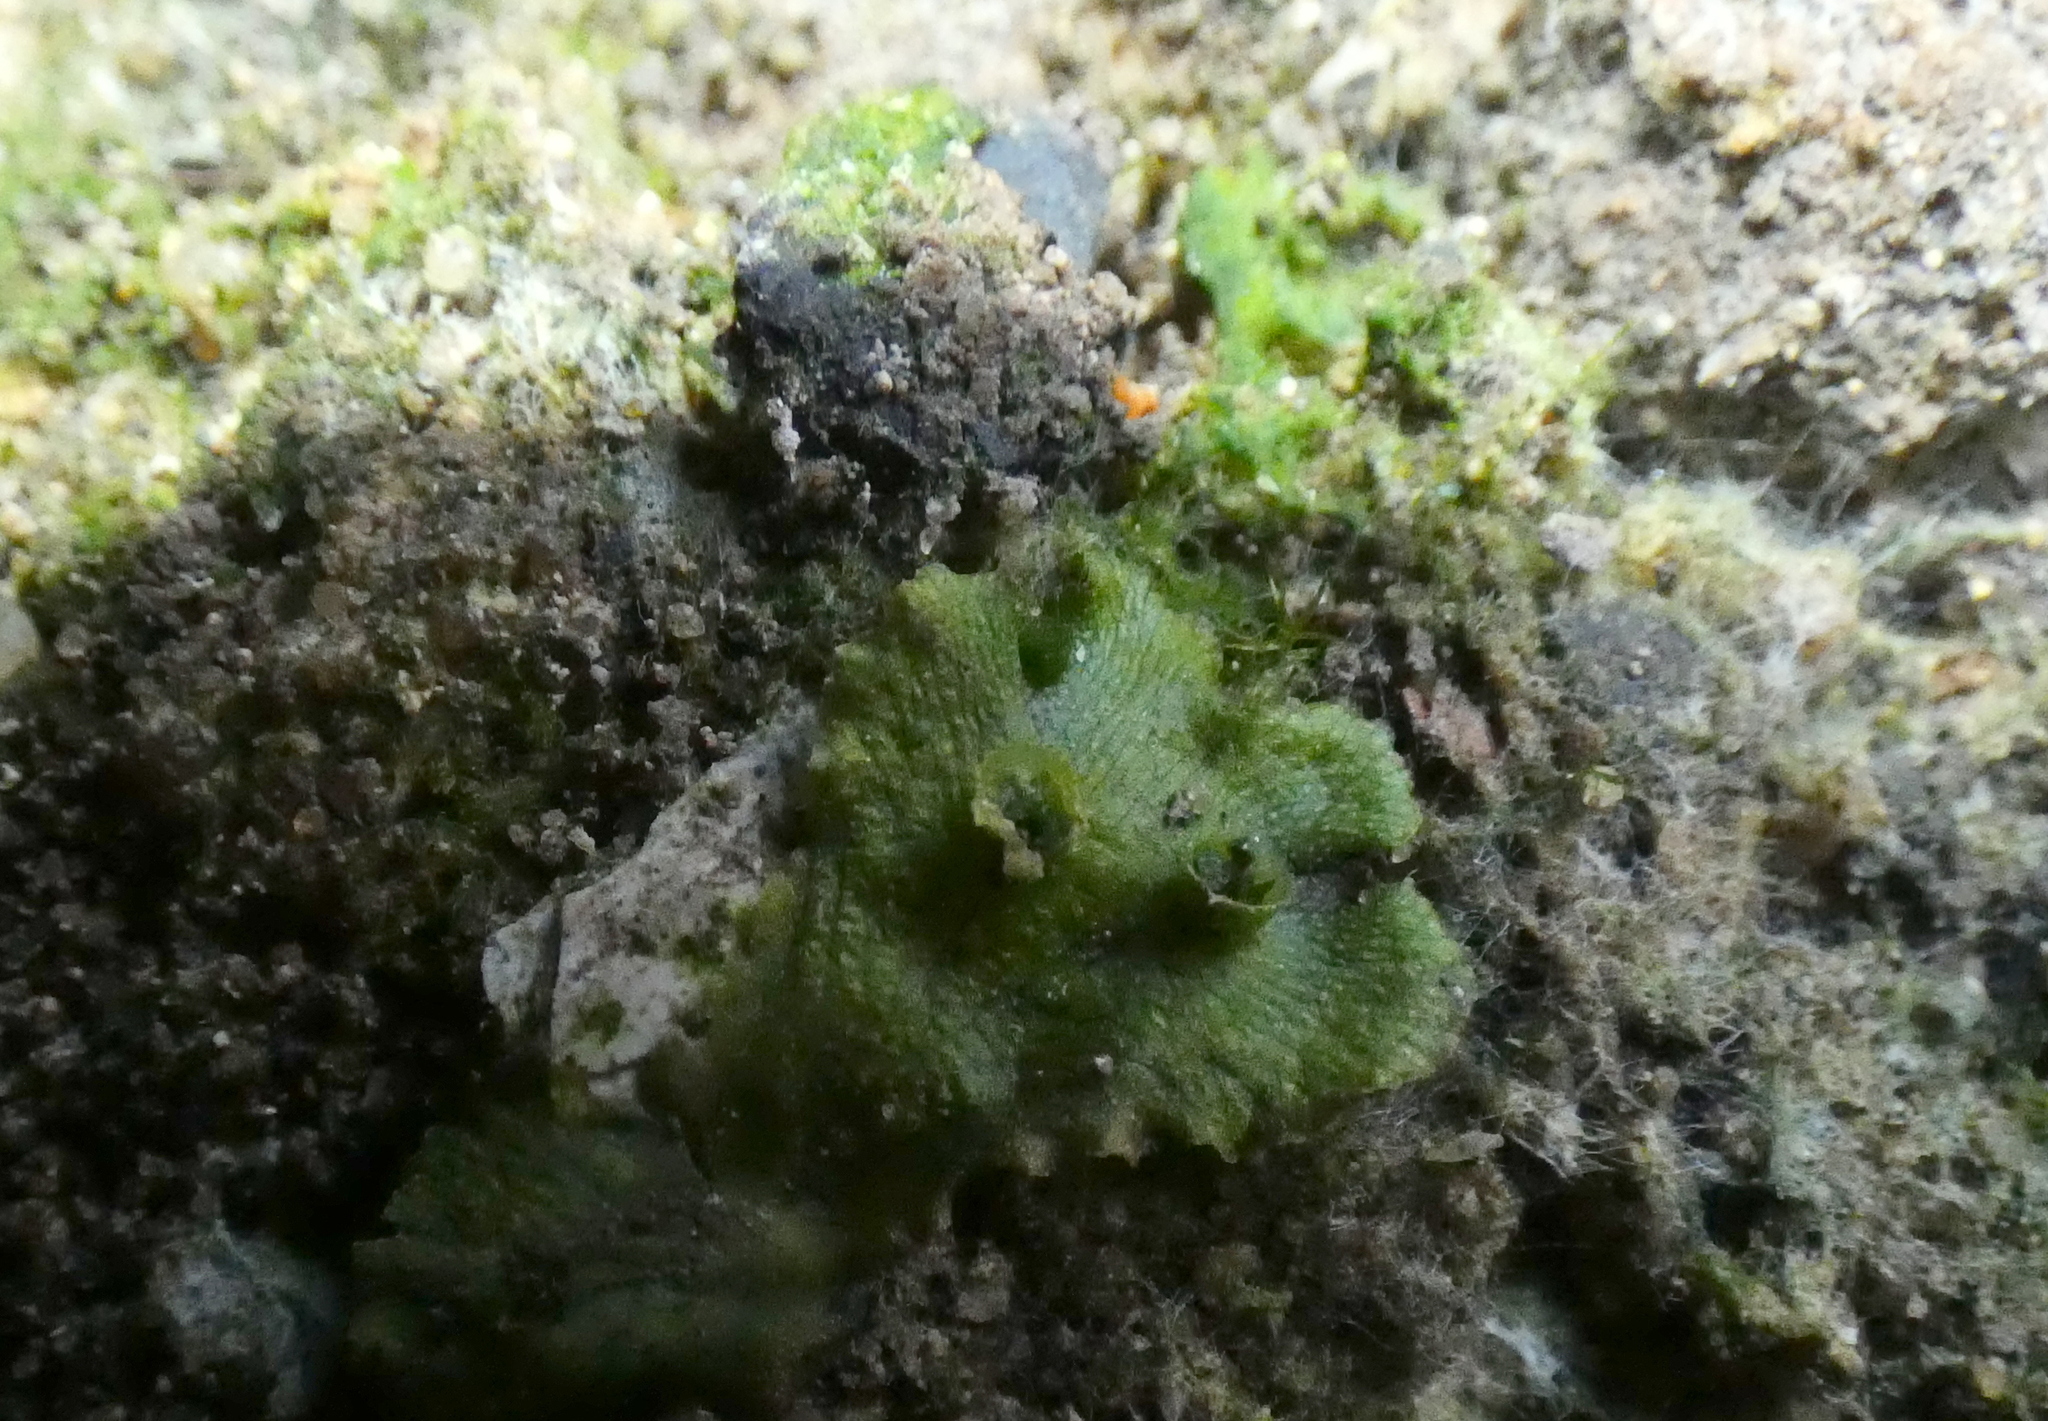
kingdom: Plantae
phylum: Marchantiophyta
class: Marchantiopsida
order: Marchantiales
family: Marchantiaceae
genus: Marchantia
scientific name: Marchantia polymorpha
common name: Common liverwort
